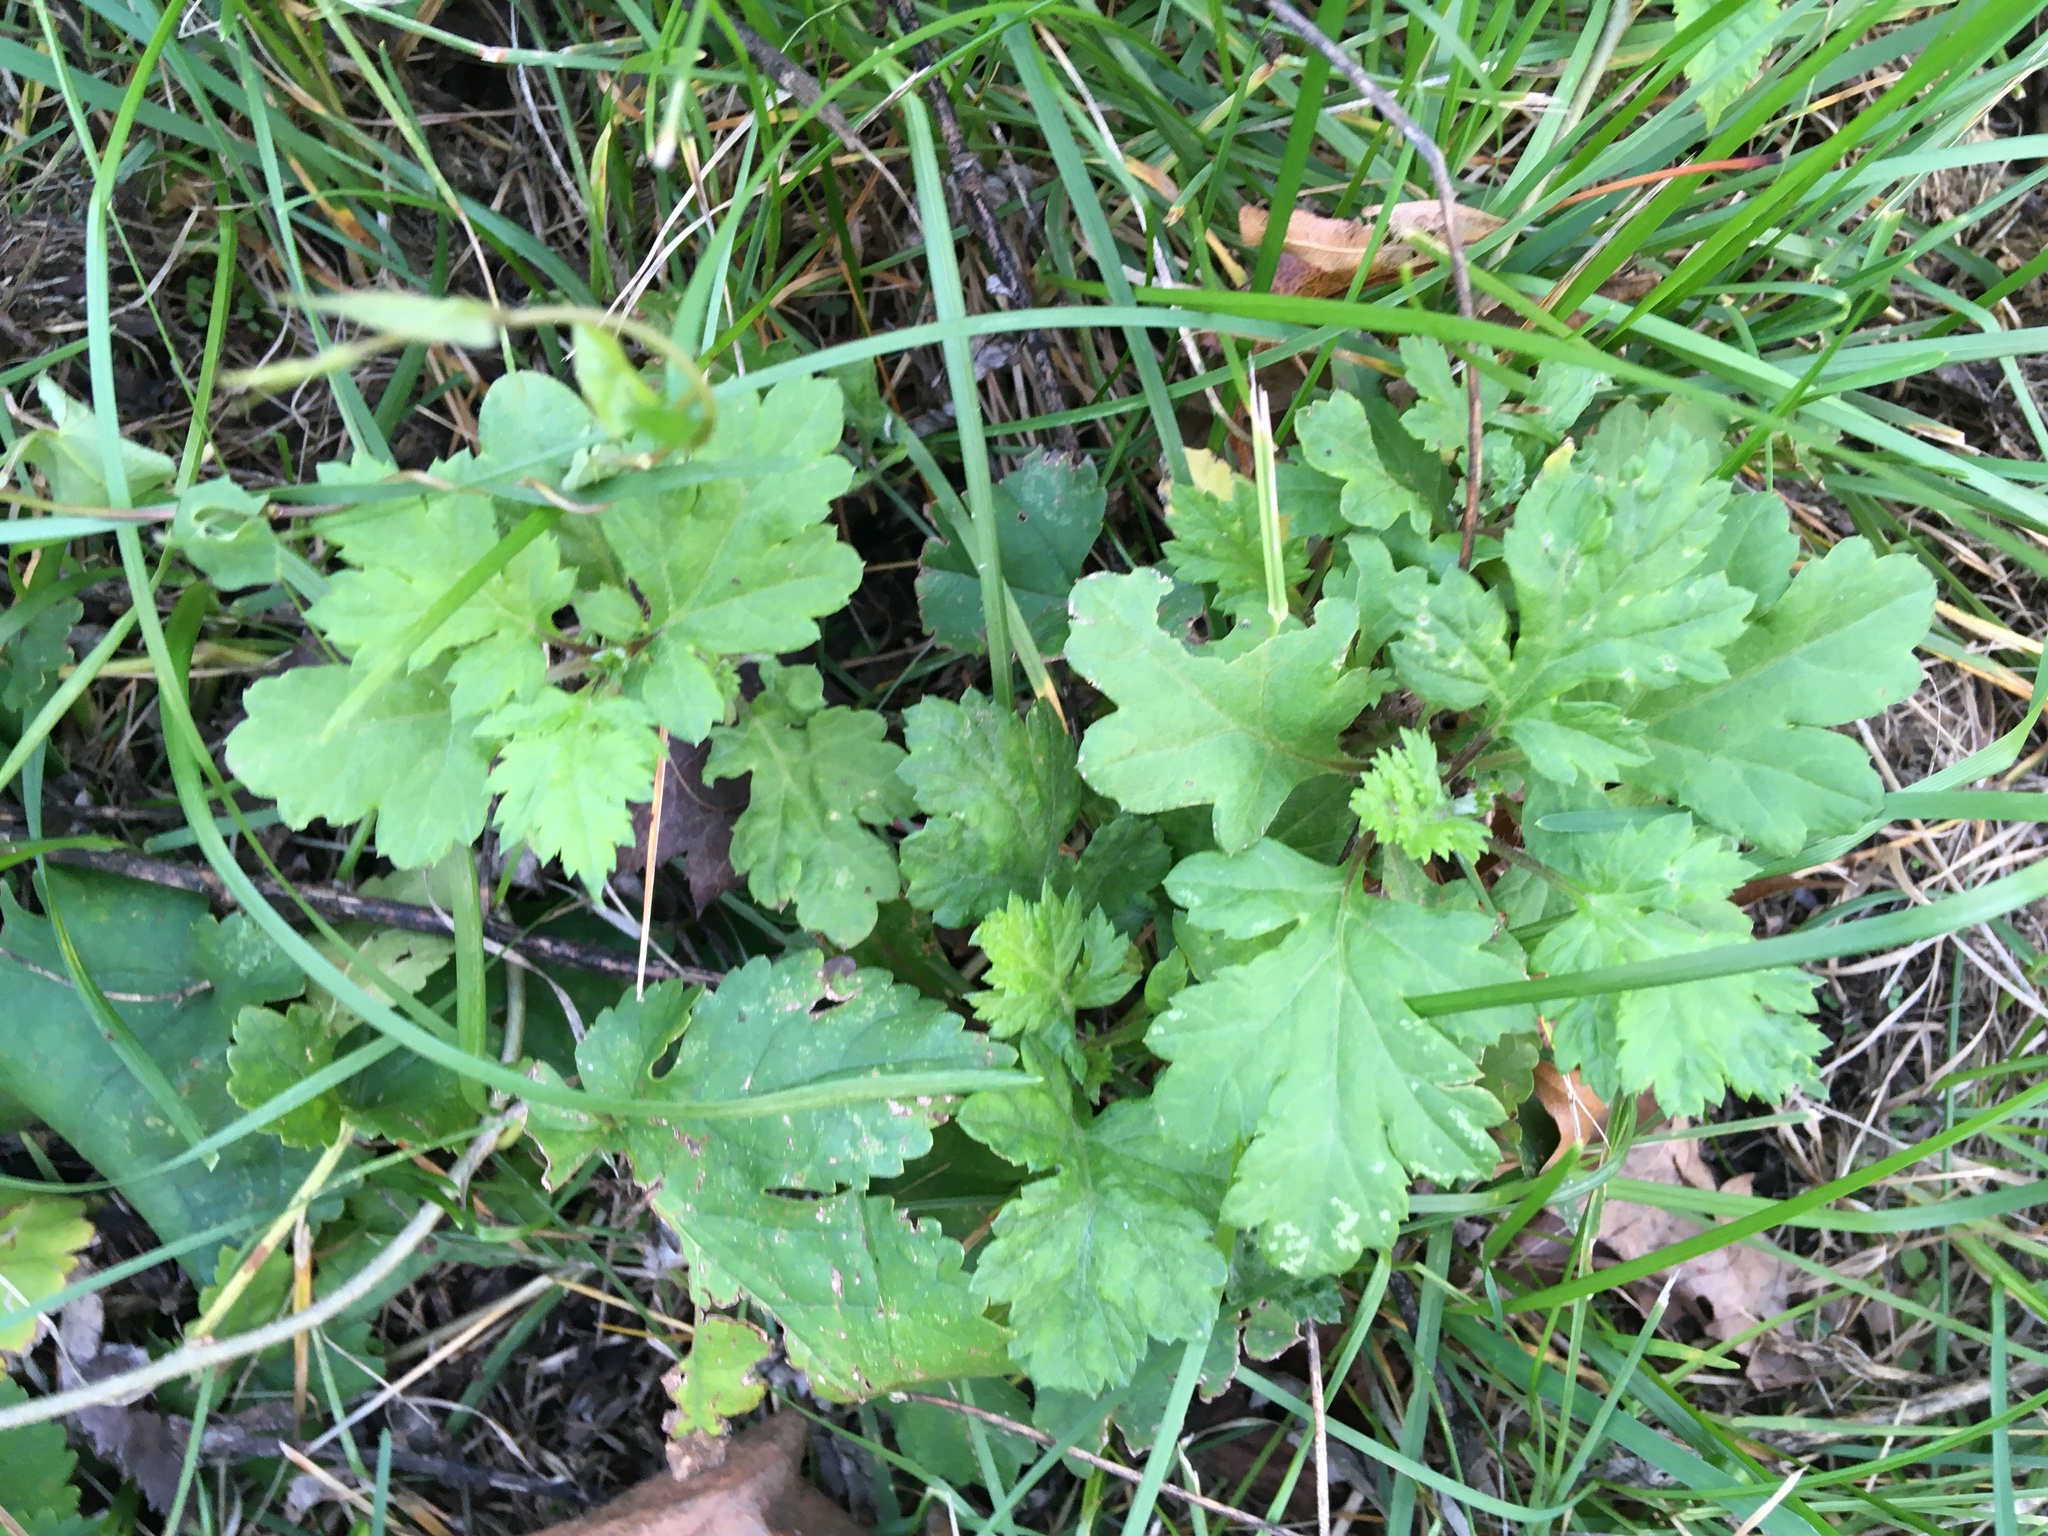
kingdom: Plantae
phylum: Tracheophyta
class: Magnoliopsida
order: Asterales
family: Asteraceae
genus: Artemisia
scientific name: Artemisia vulgaris
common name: Mugwort
